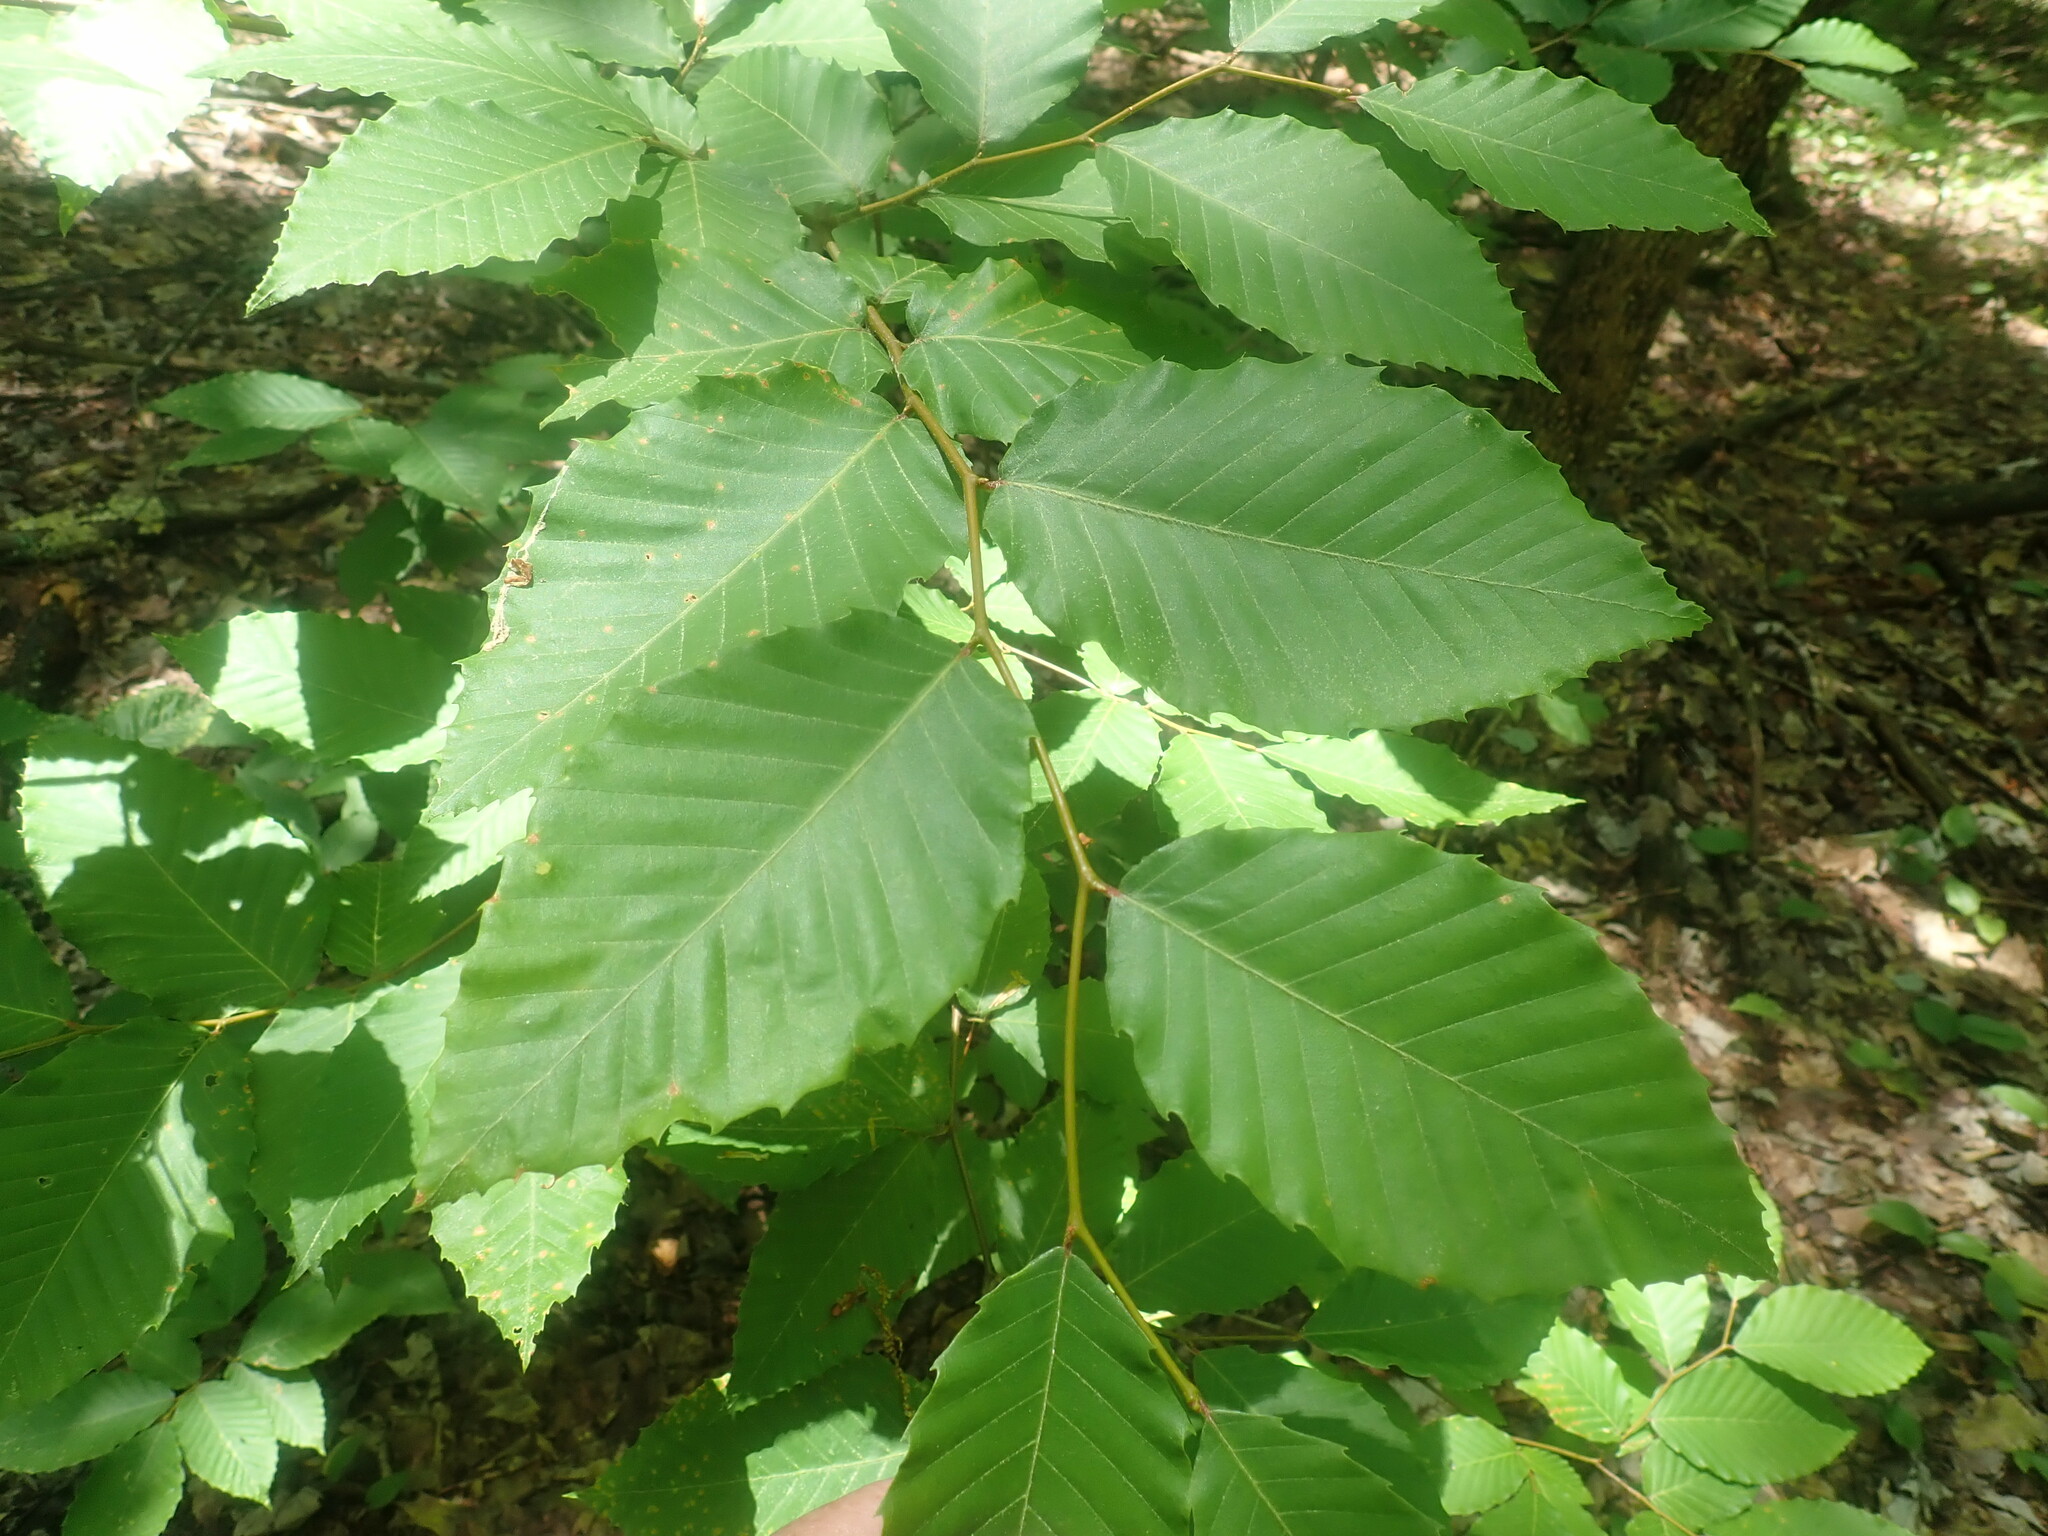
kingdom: Plantae
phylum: Tracheophyta
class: Magnoliopsida
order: Fagales
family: Fagaceae
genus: Fagus
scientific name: Fagus grandifolia
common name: American beech
